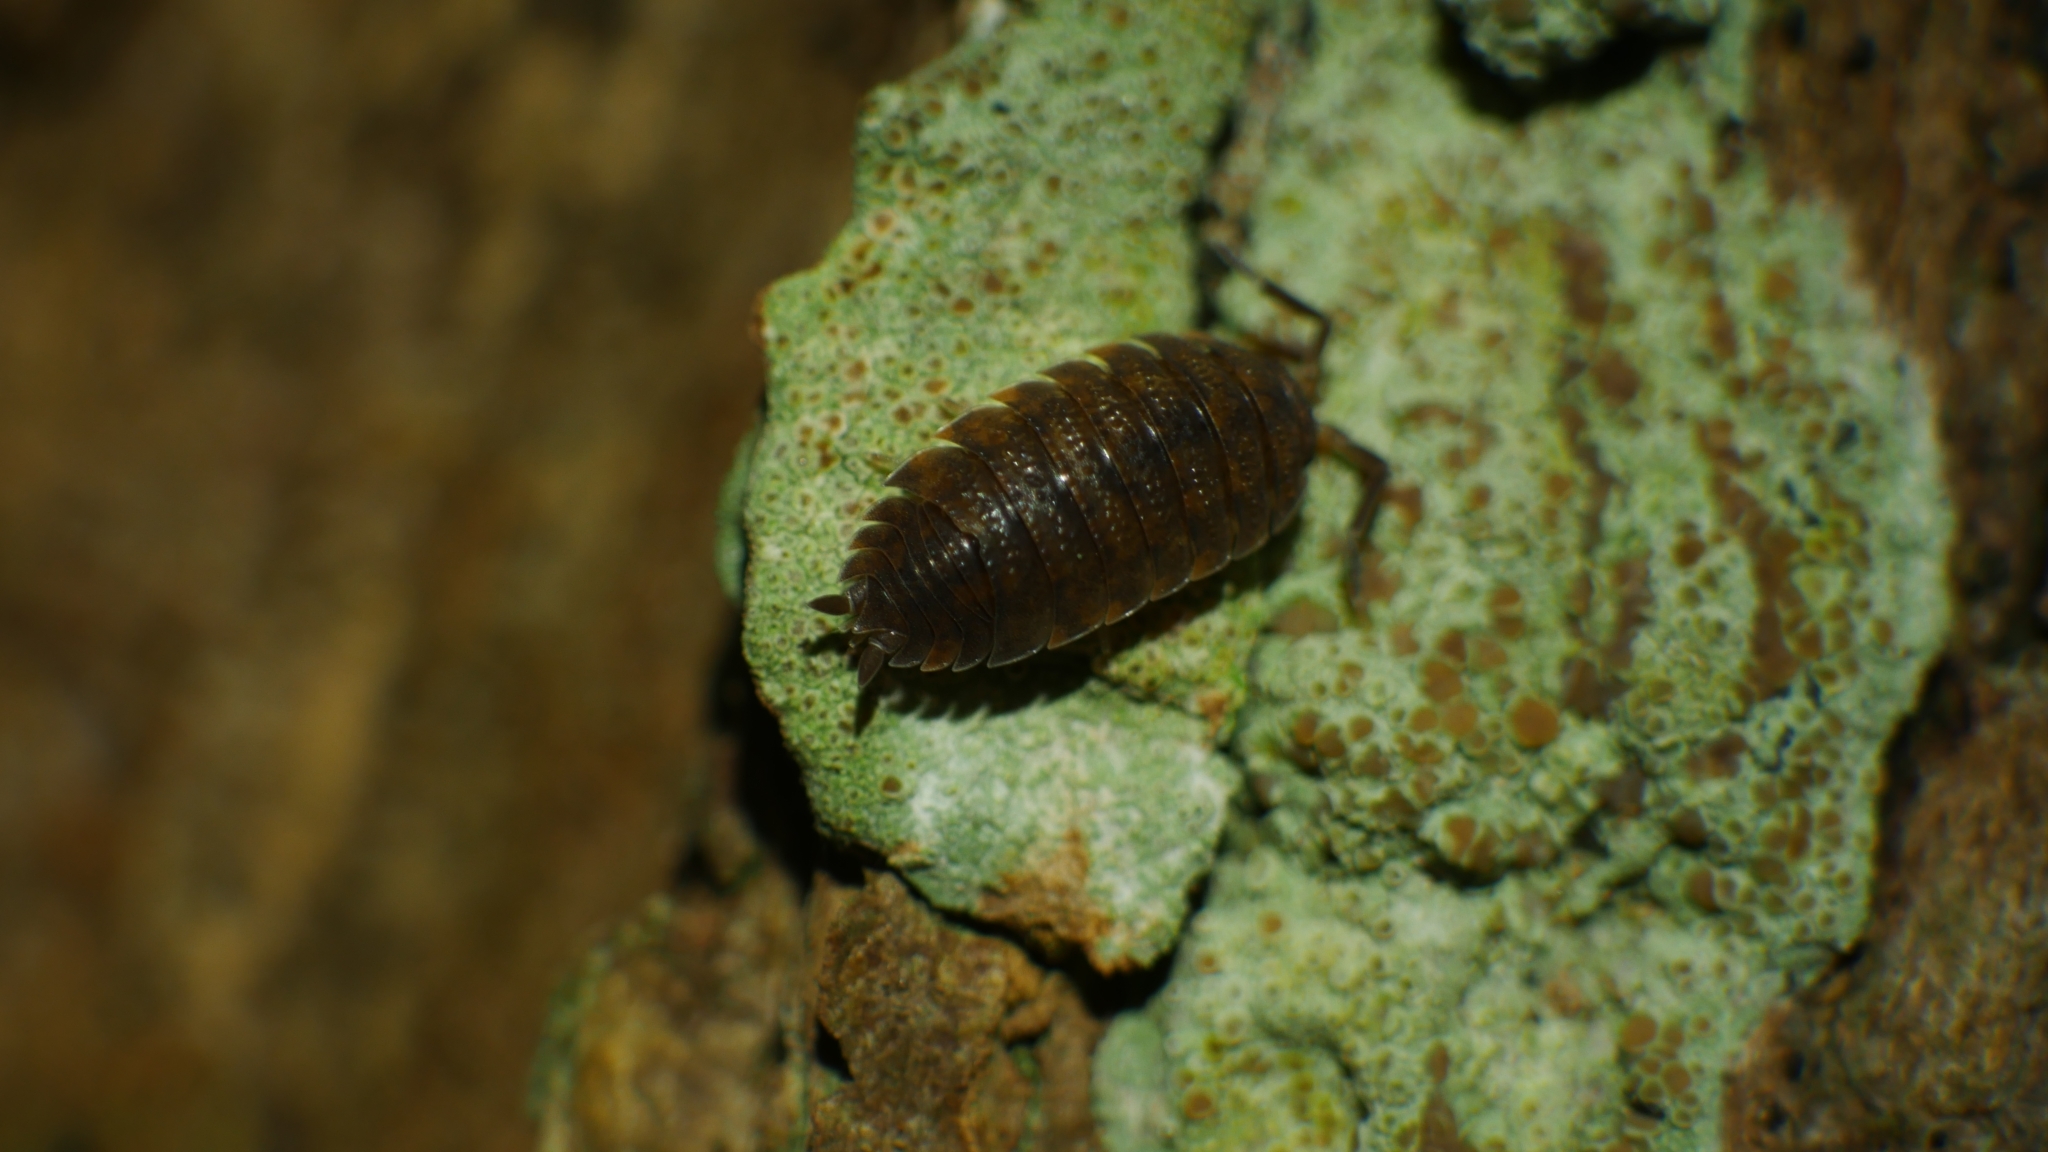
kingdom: Animalia
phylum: Arthropoda
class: Malacostraca
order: Isopoda
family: Porcellionidae
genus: Porcellio
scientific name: Porcellio scaber
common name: Common rough woodlouse
